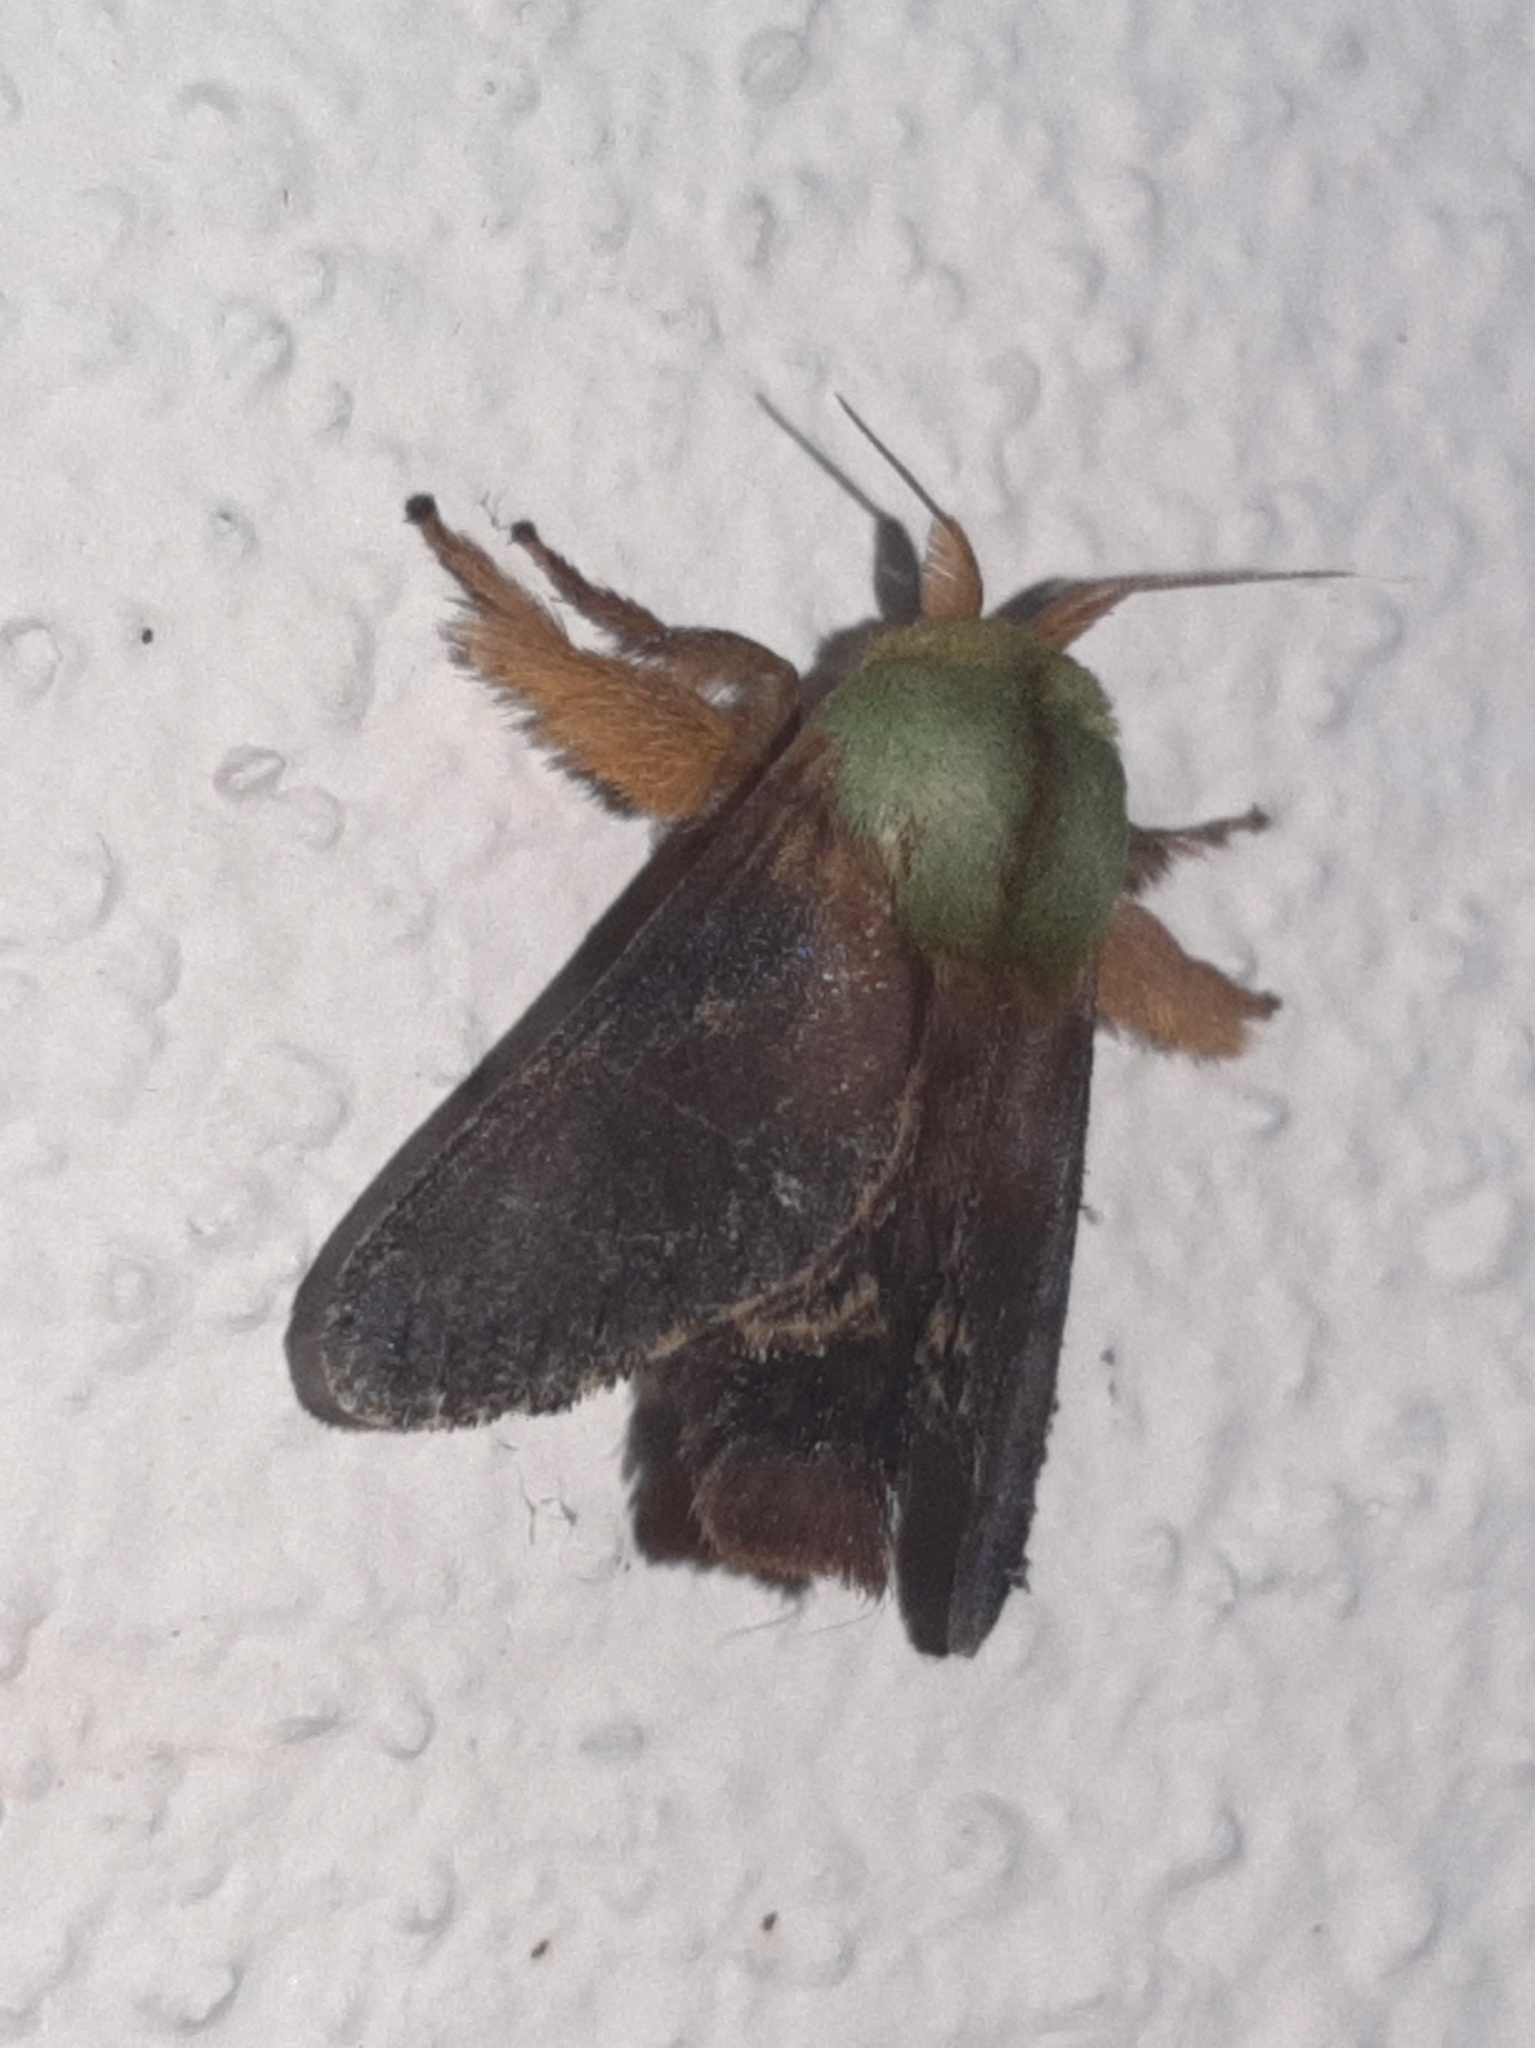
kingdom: Animalia
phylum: Arthropoda
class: Insecta
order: Lepidoptera
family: Limacodidae
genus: Parasa
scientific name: Parasa cebrenis
